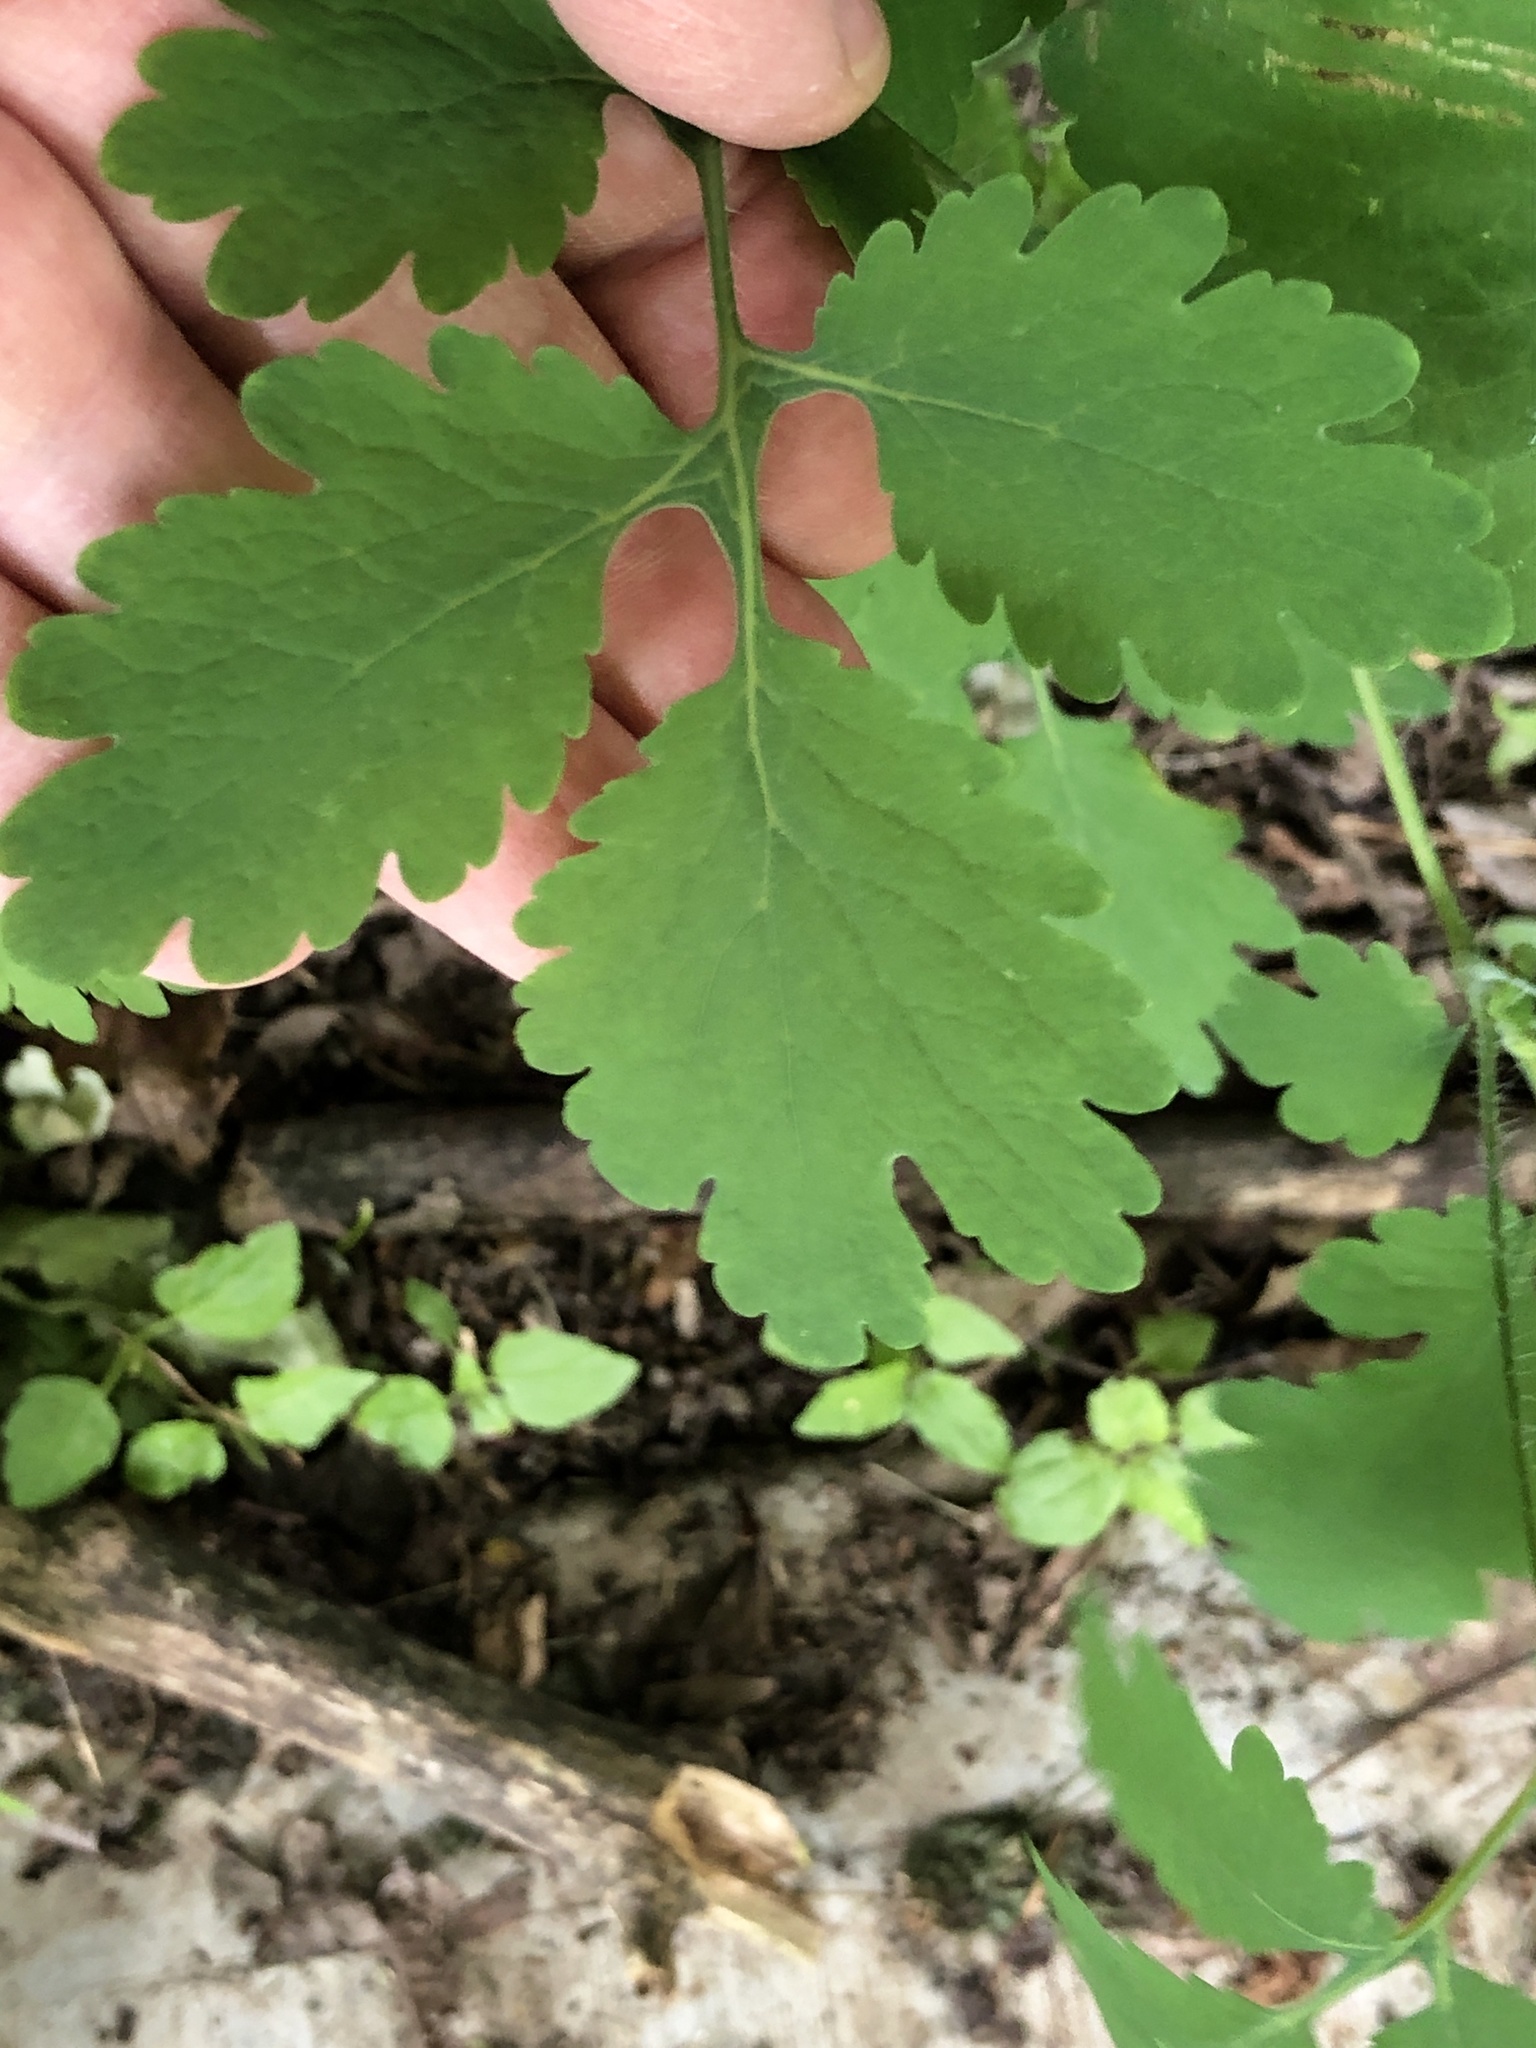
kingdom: Plantae
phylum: Tracheophyta
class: Magnoliopsida
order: Ranunculales
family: Papaveraceae
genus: Chelidonium
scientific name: Chelidonium majus
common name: Greater celandine
